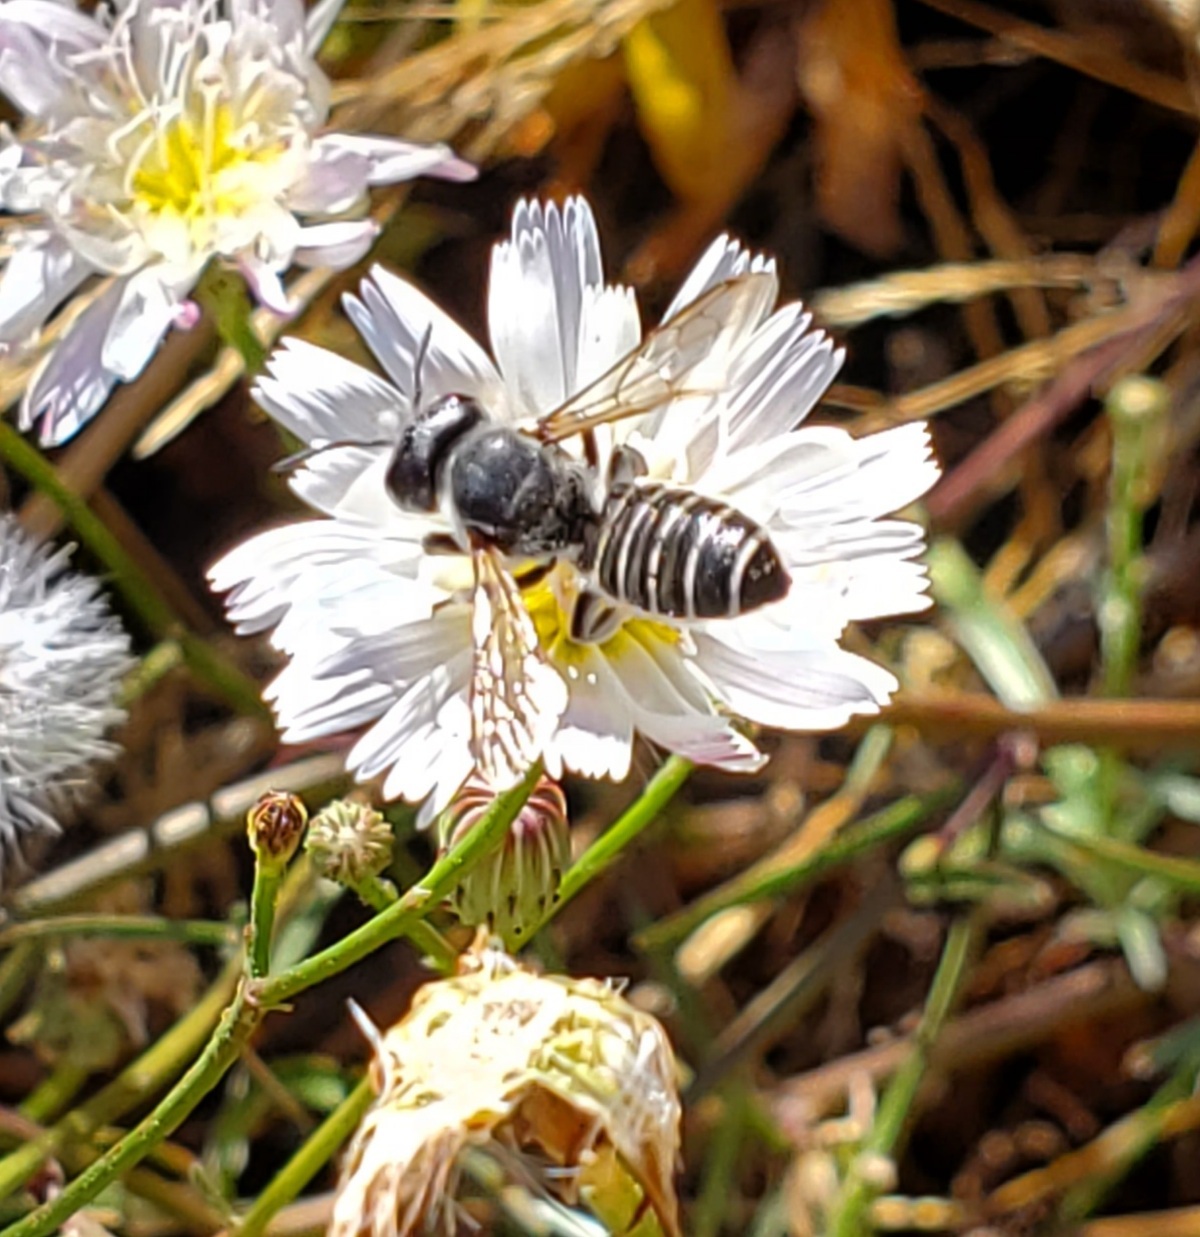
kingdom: Animalia
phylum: Arthropoda
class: Insecta
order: Hymenoptera
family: Megachilidae
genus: Megachile
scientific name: Megachile policaris
